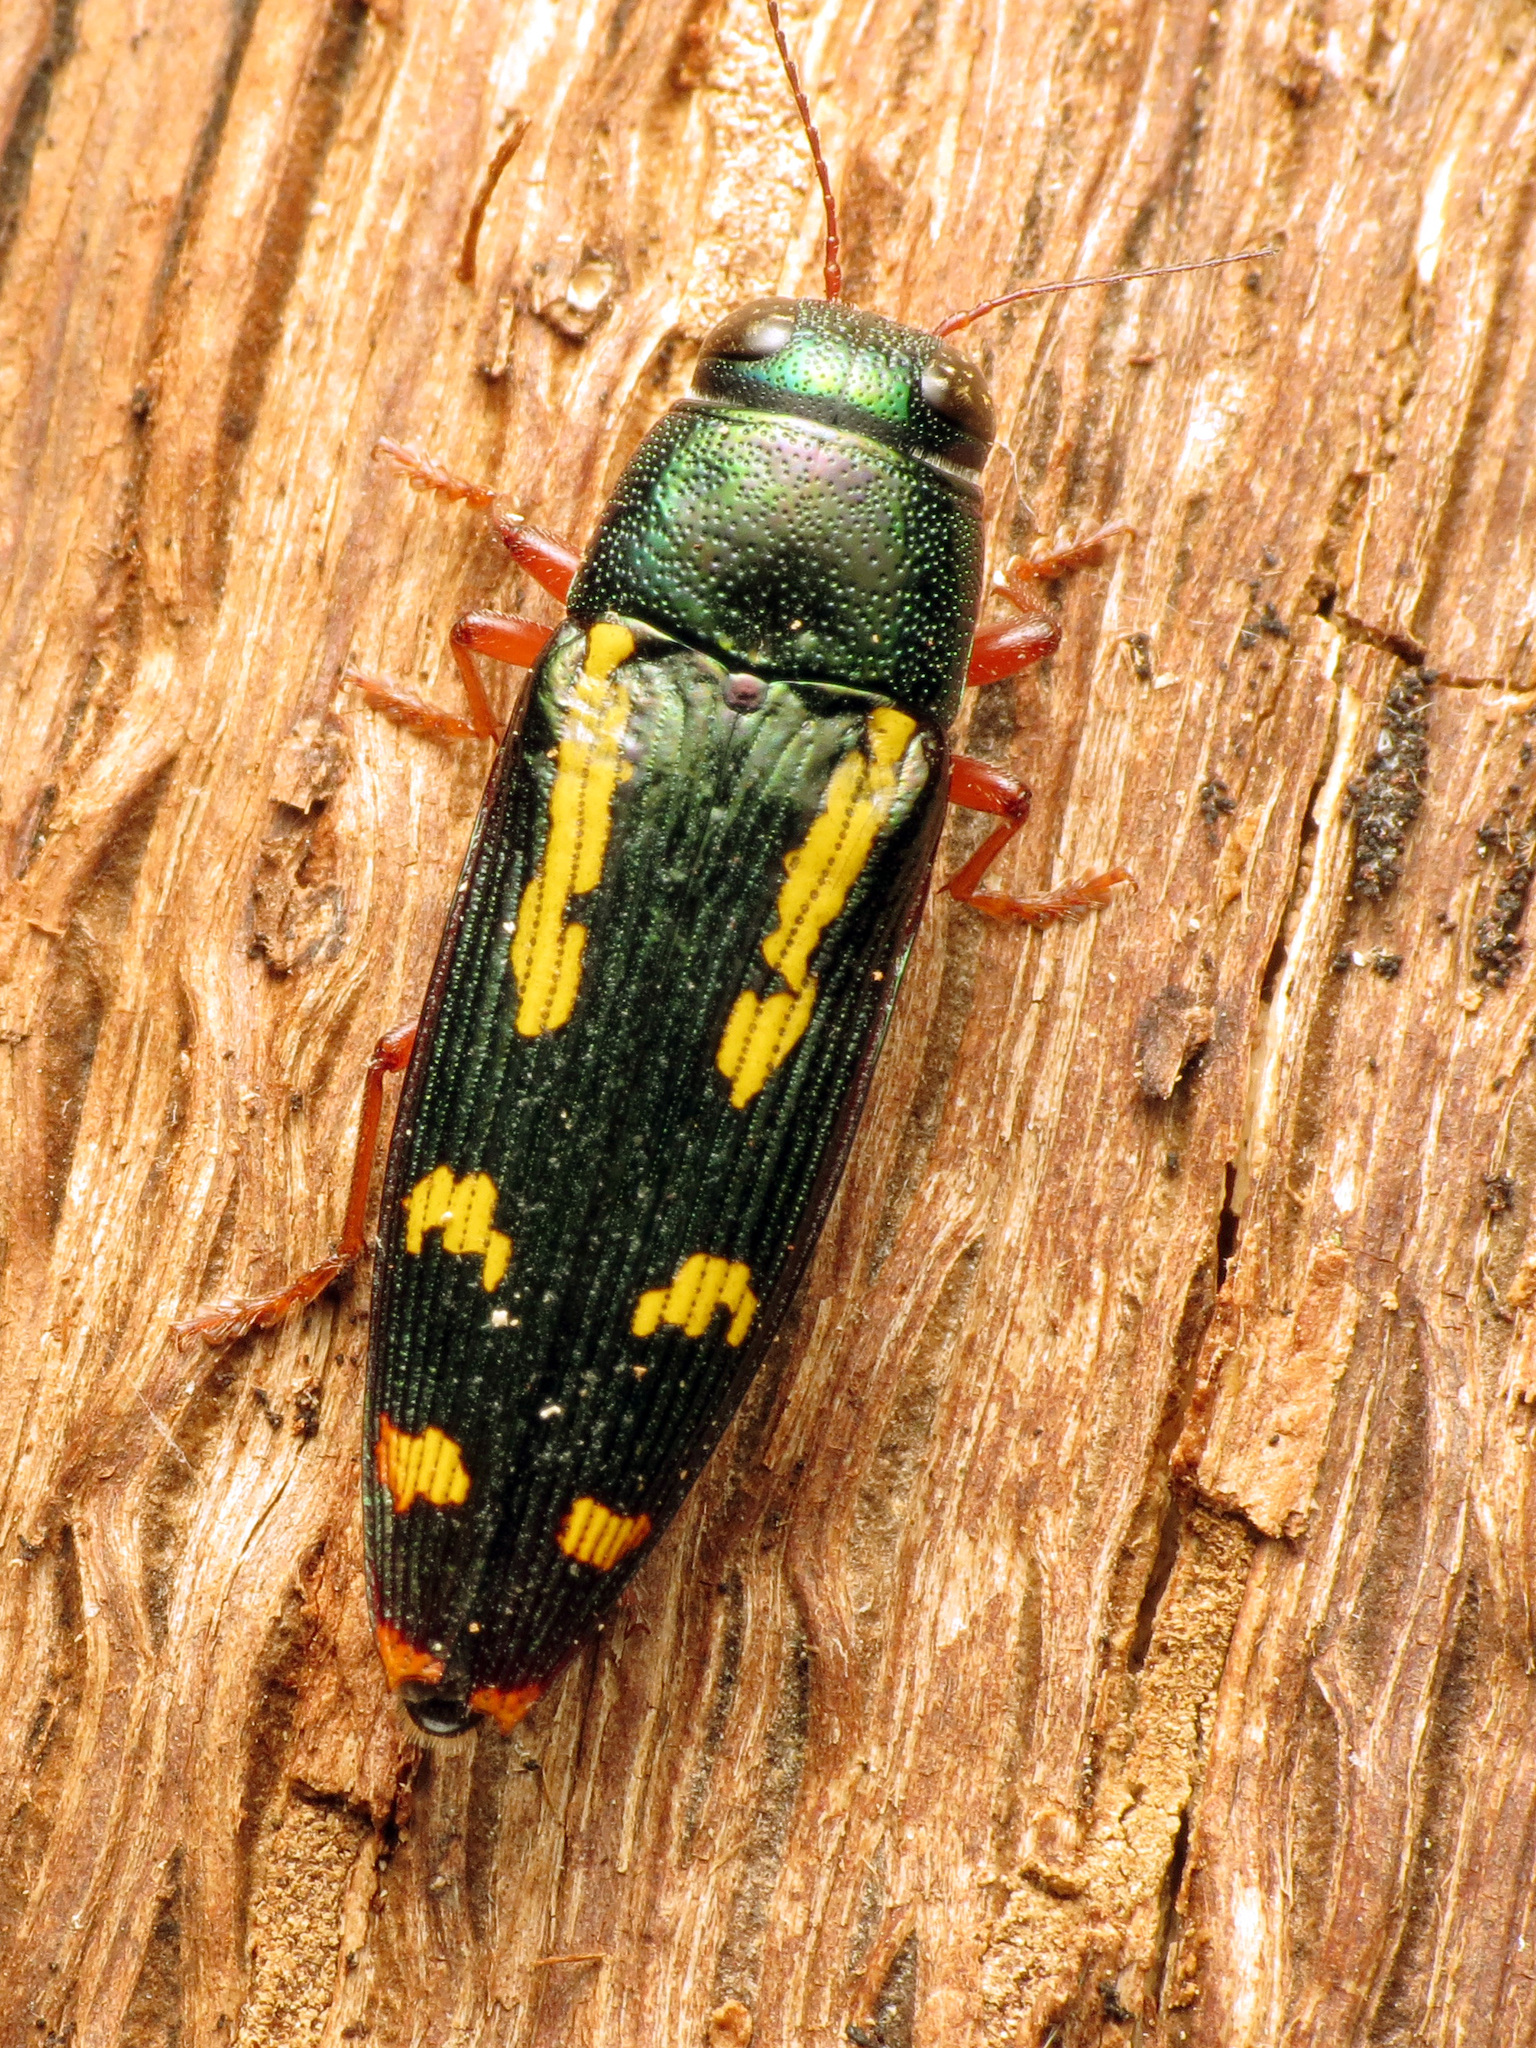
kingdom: Animalia
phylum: Arthropoda
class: Insecta
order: Coleoptera
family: Buprestidae
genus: Buprestis
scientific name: Buprestis rufipes
